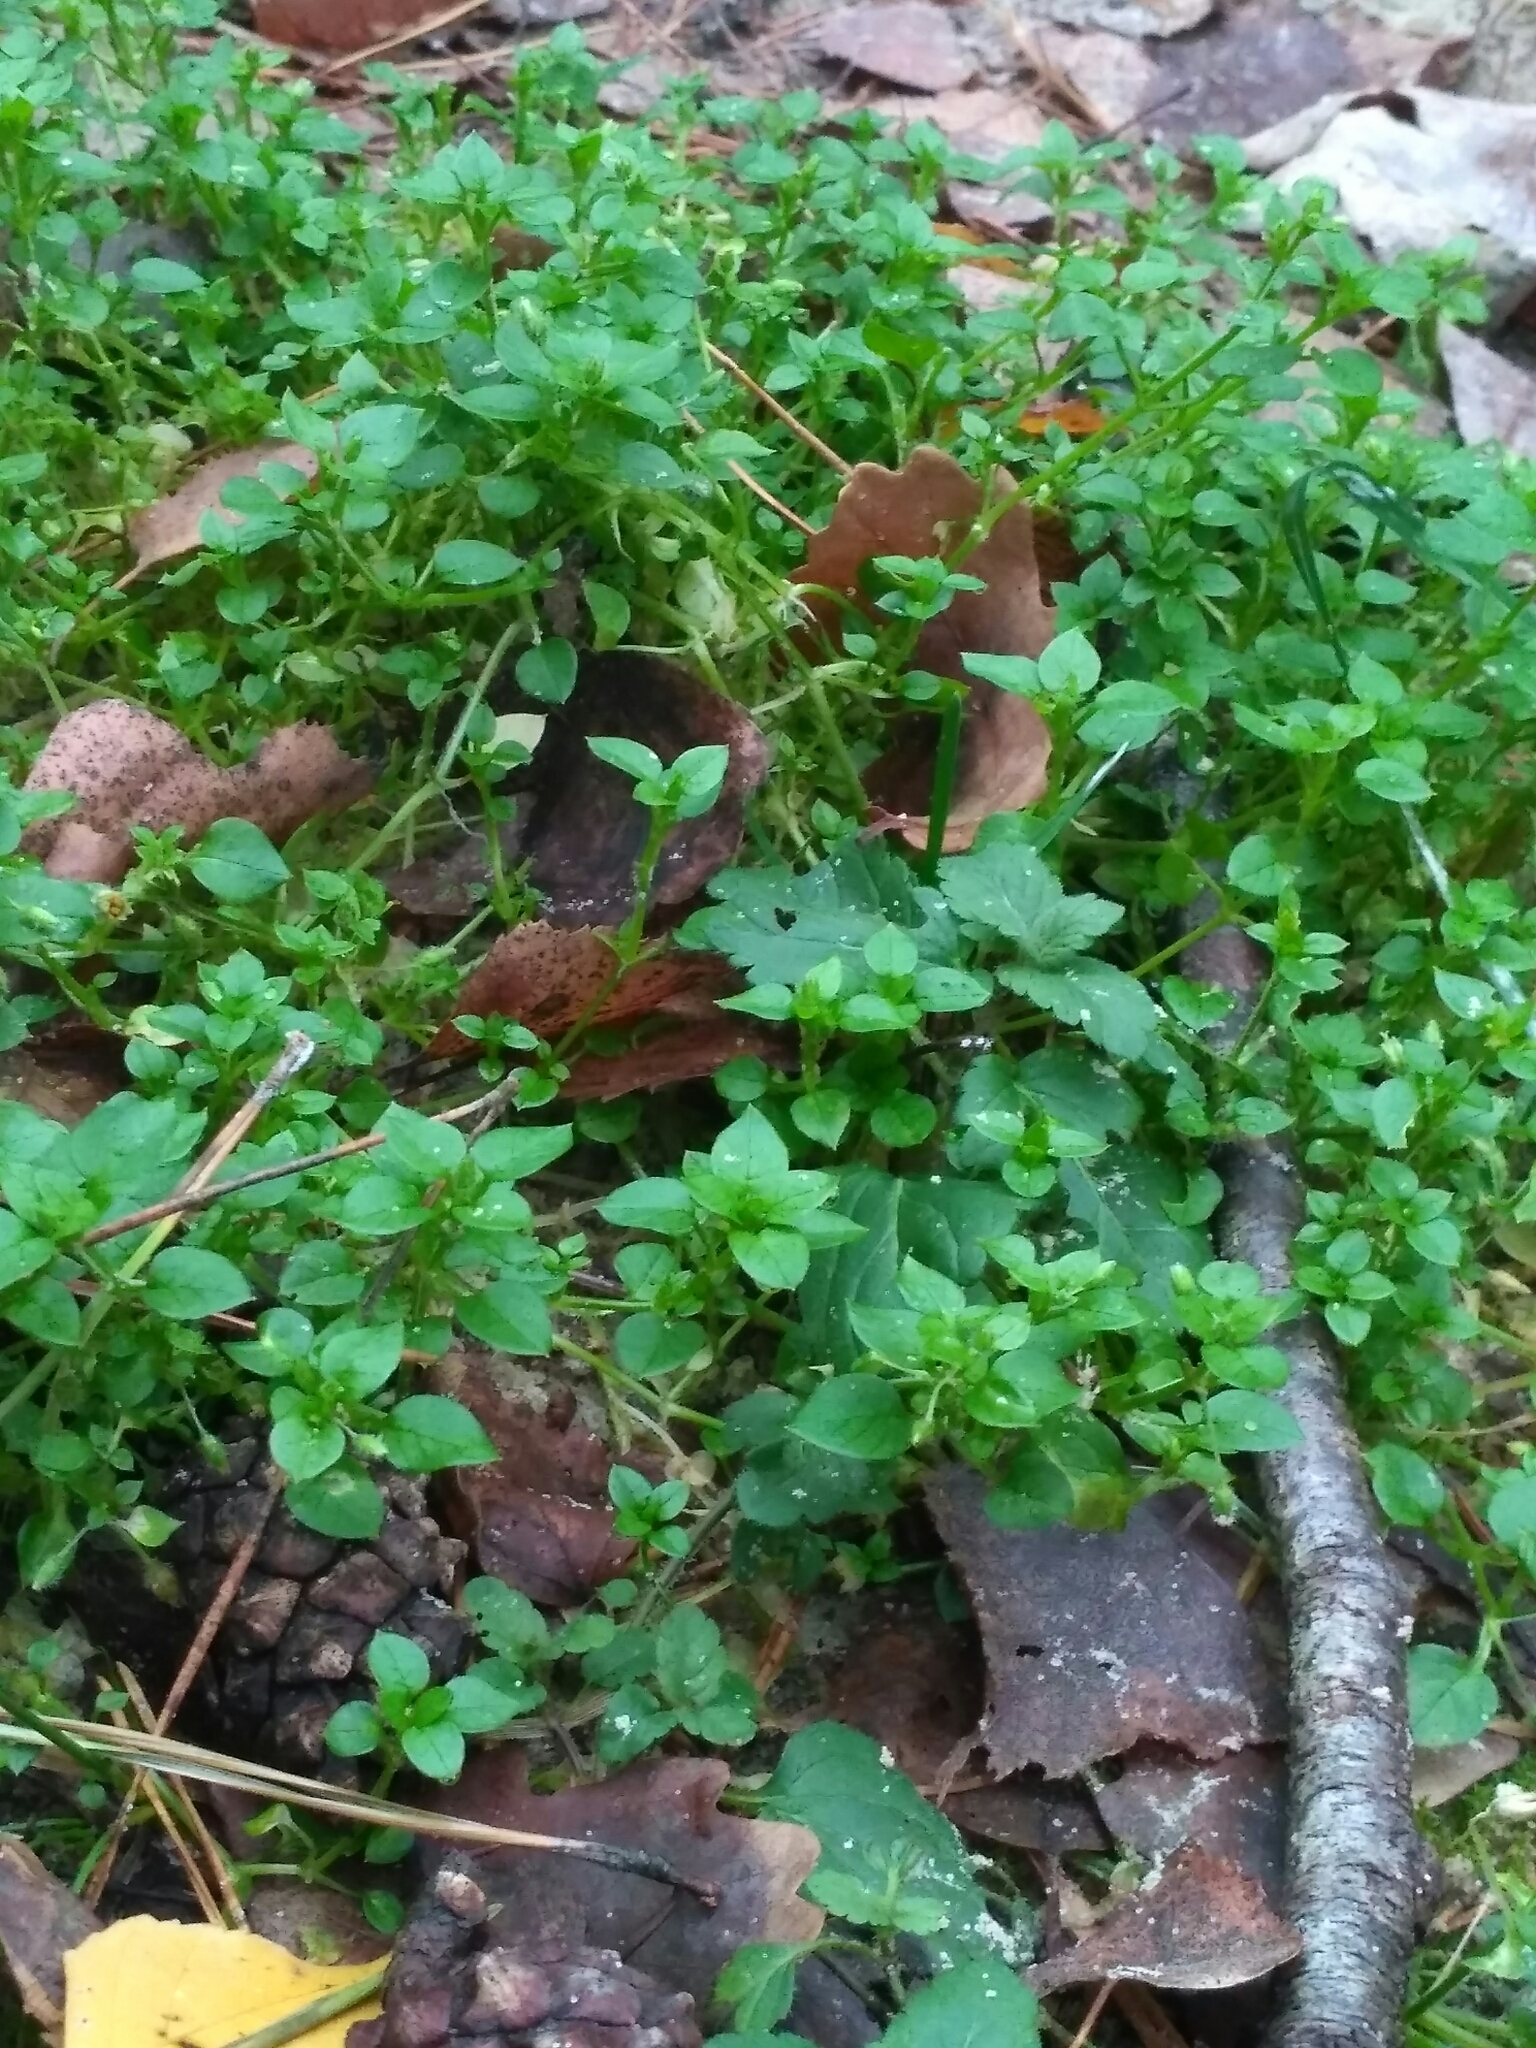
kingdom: Plantae
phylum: Tracheophyta
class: Magnoliopsida
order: Caryophyllales
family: Caryophyllaceae
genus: Stellaria
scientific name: Stellaria media
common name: Common chickweed
